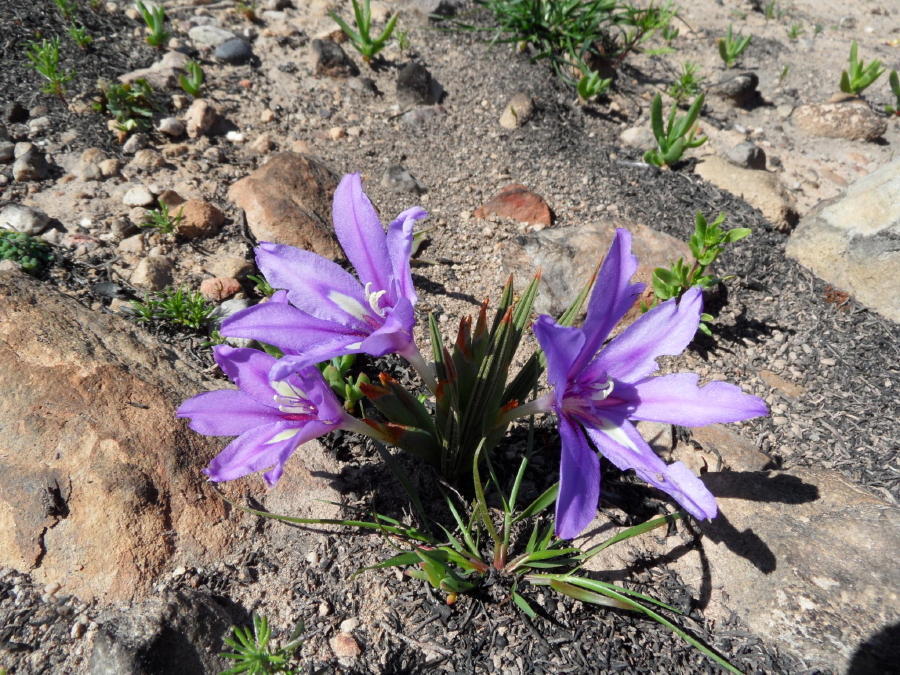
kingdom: Plantae
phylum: Tracheophyta
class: Liliopsida
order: Asparagales
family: Iridaceae
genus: Babiana
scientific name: Babiana sambucina
